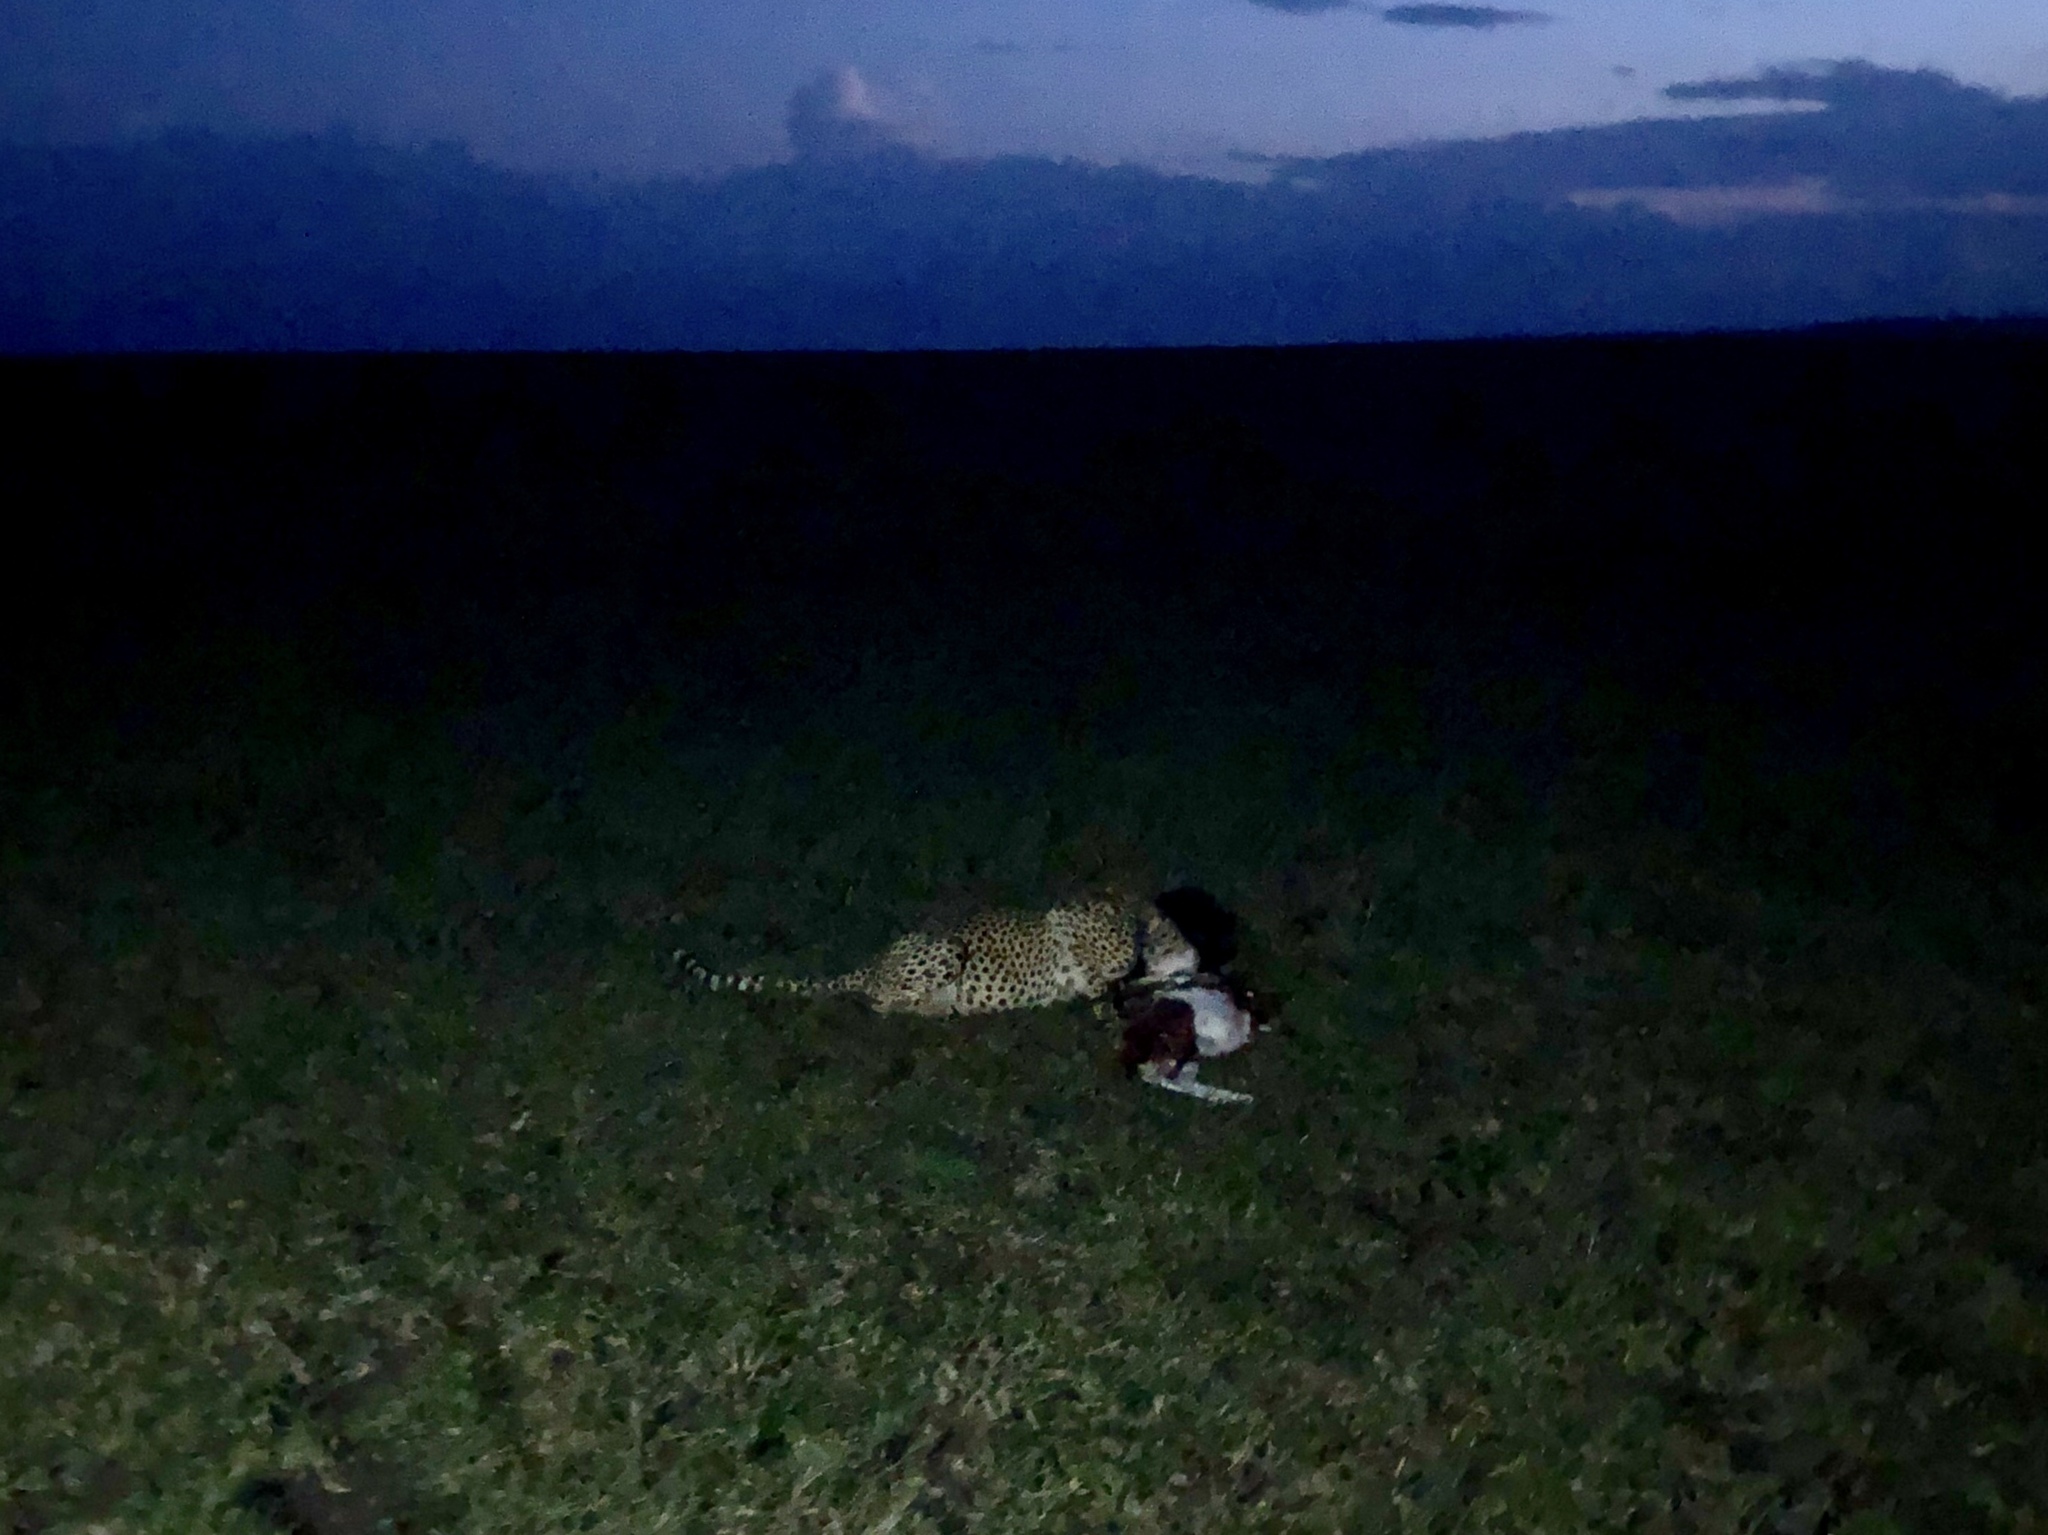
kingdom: Animalia
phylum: Chordata
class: Mammalia
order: Carnivora
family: Felidae
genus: Acinonyx
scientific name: Acinonyx jubatus
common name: Cheetah
